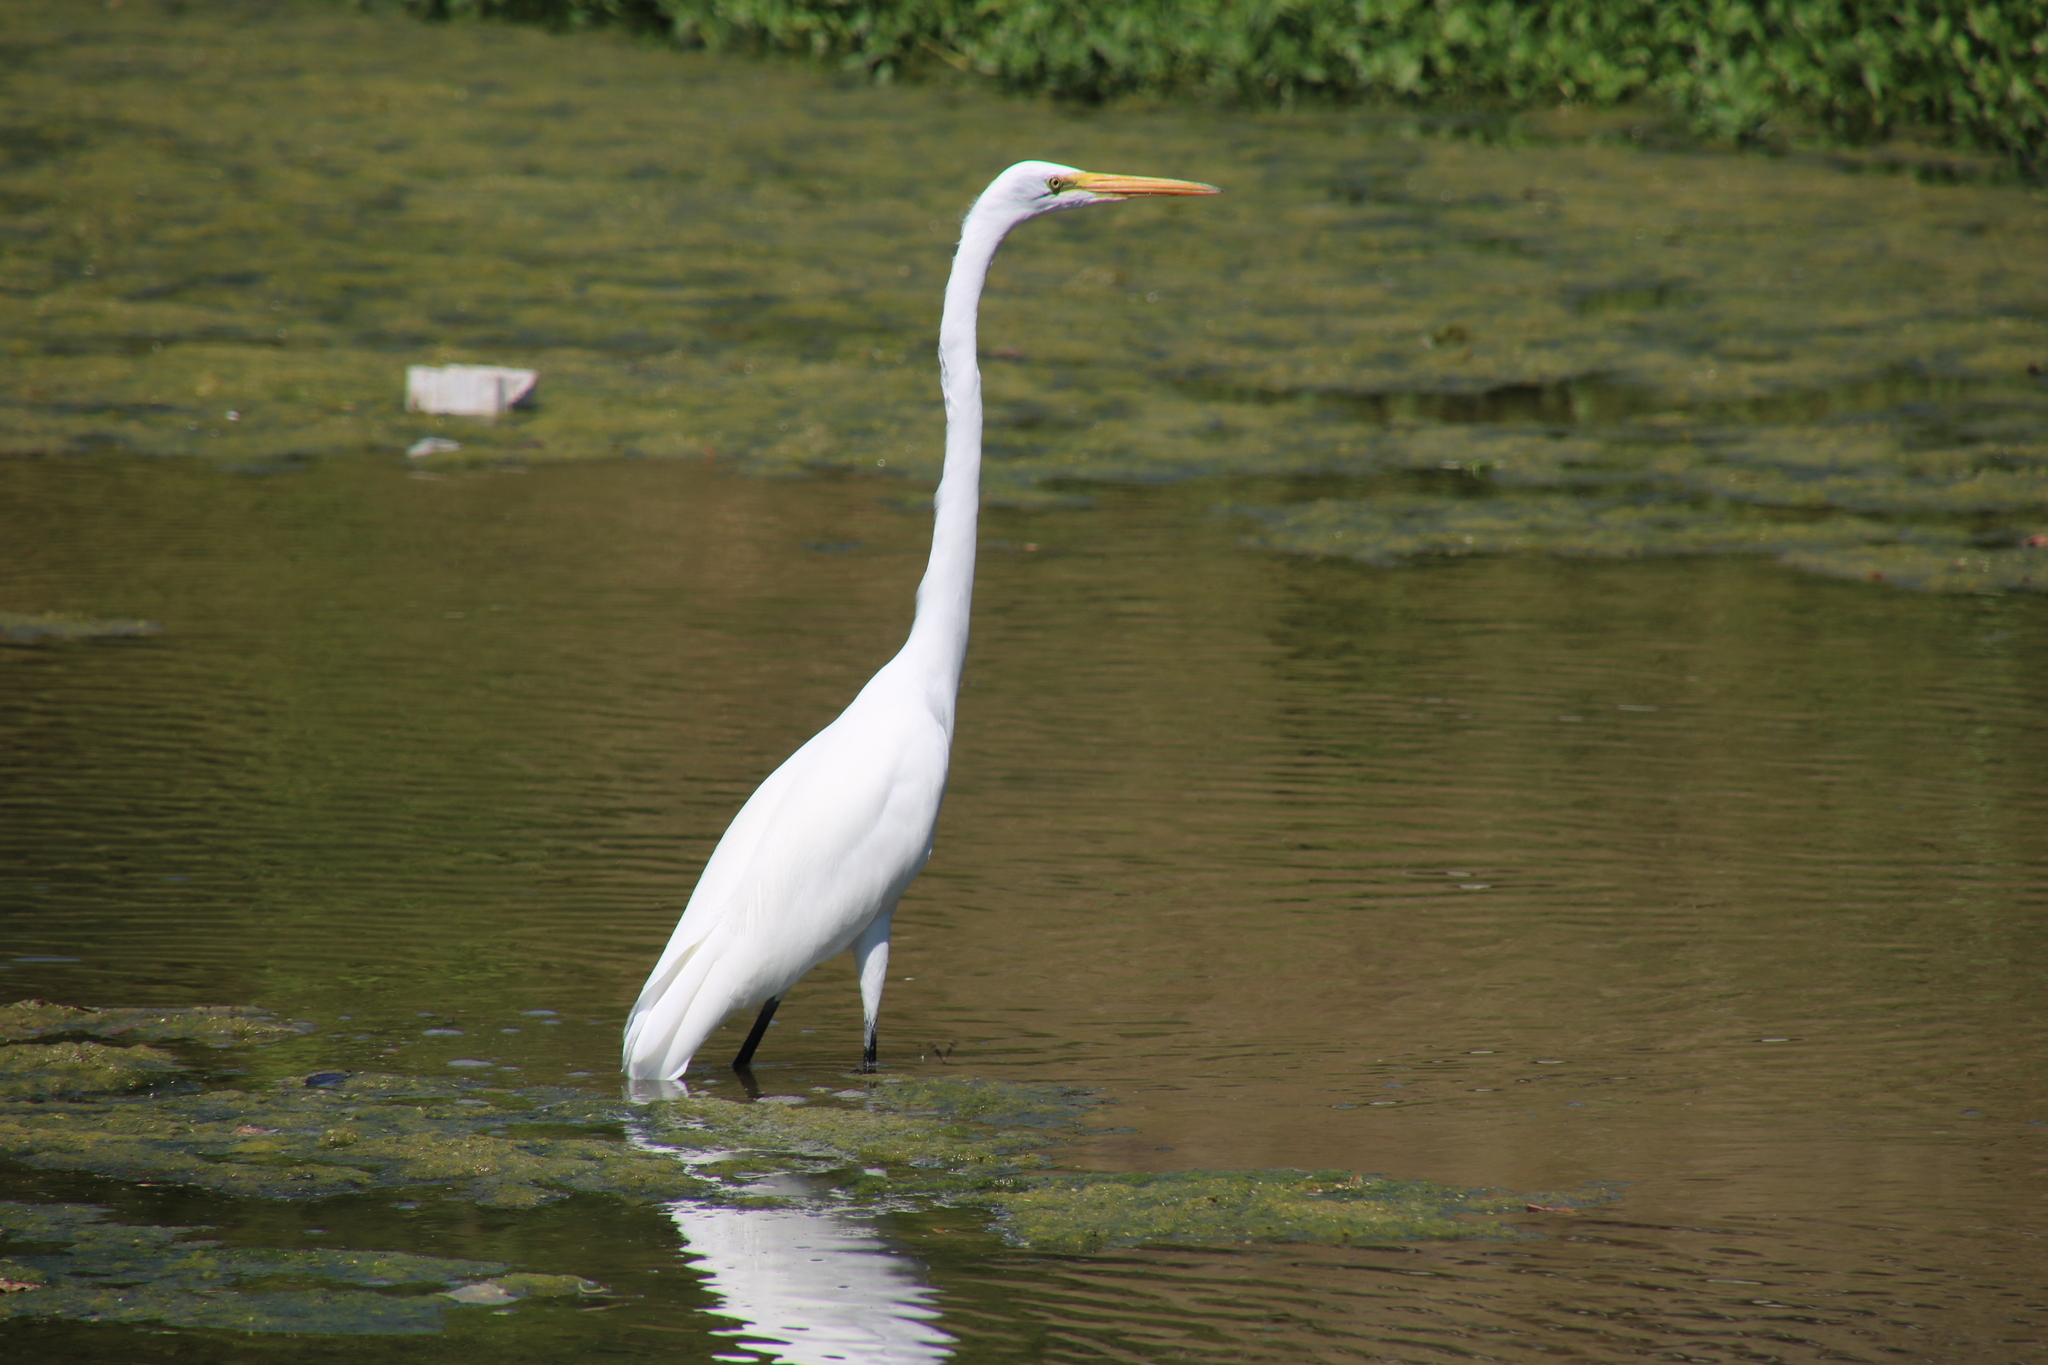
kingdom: Animalia
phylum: Chordata
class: Aves
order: Pelecaniformes
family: Ardeidae
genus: Ardea
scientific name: Ardea alba
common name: Great egret
